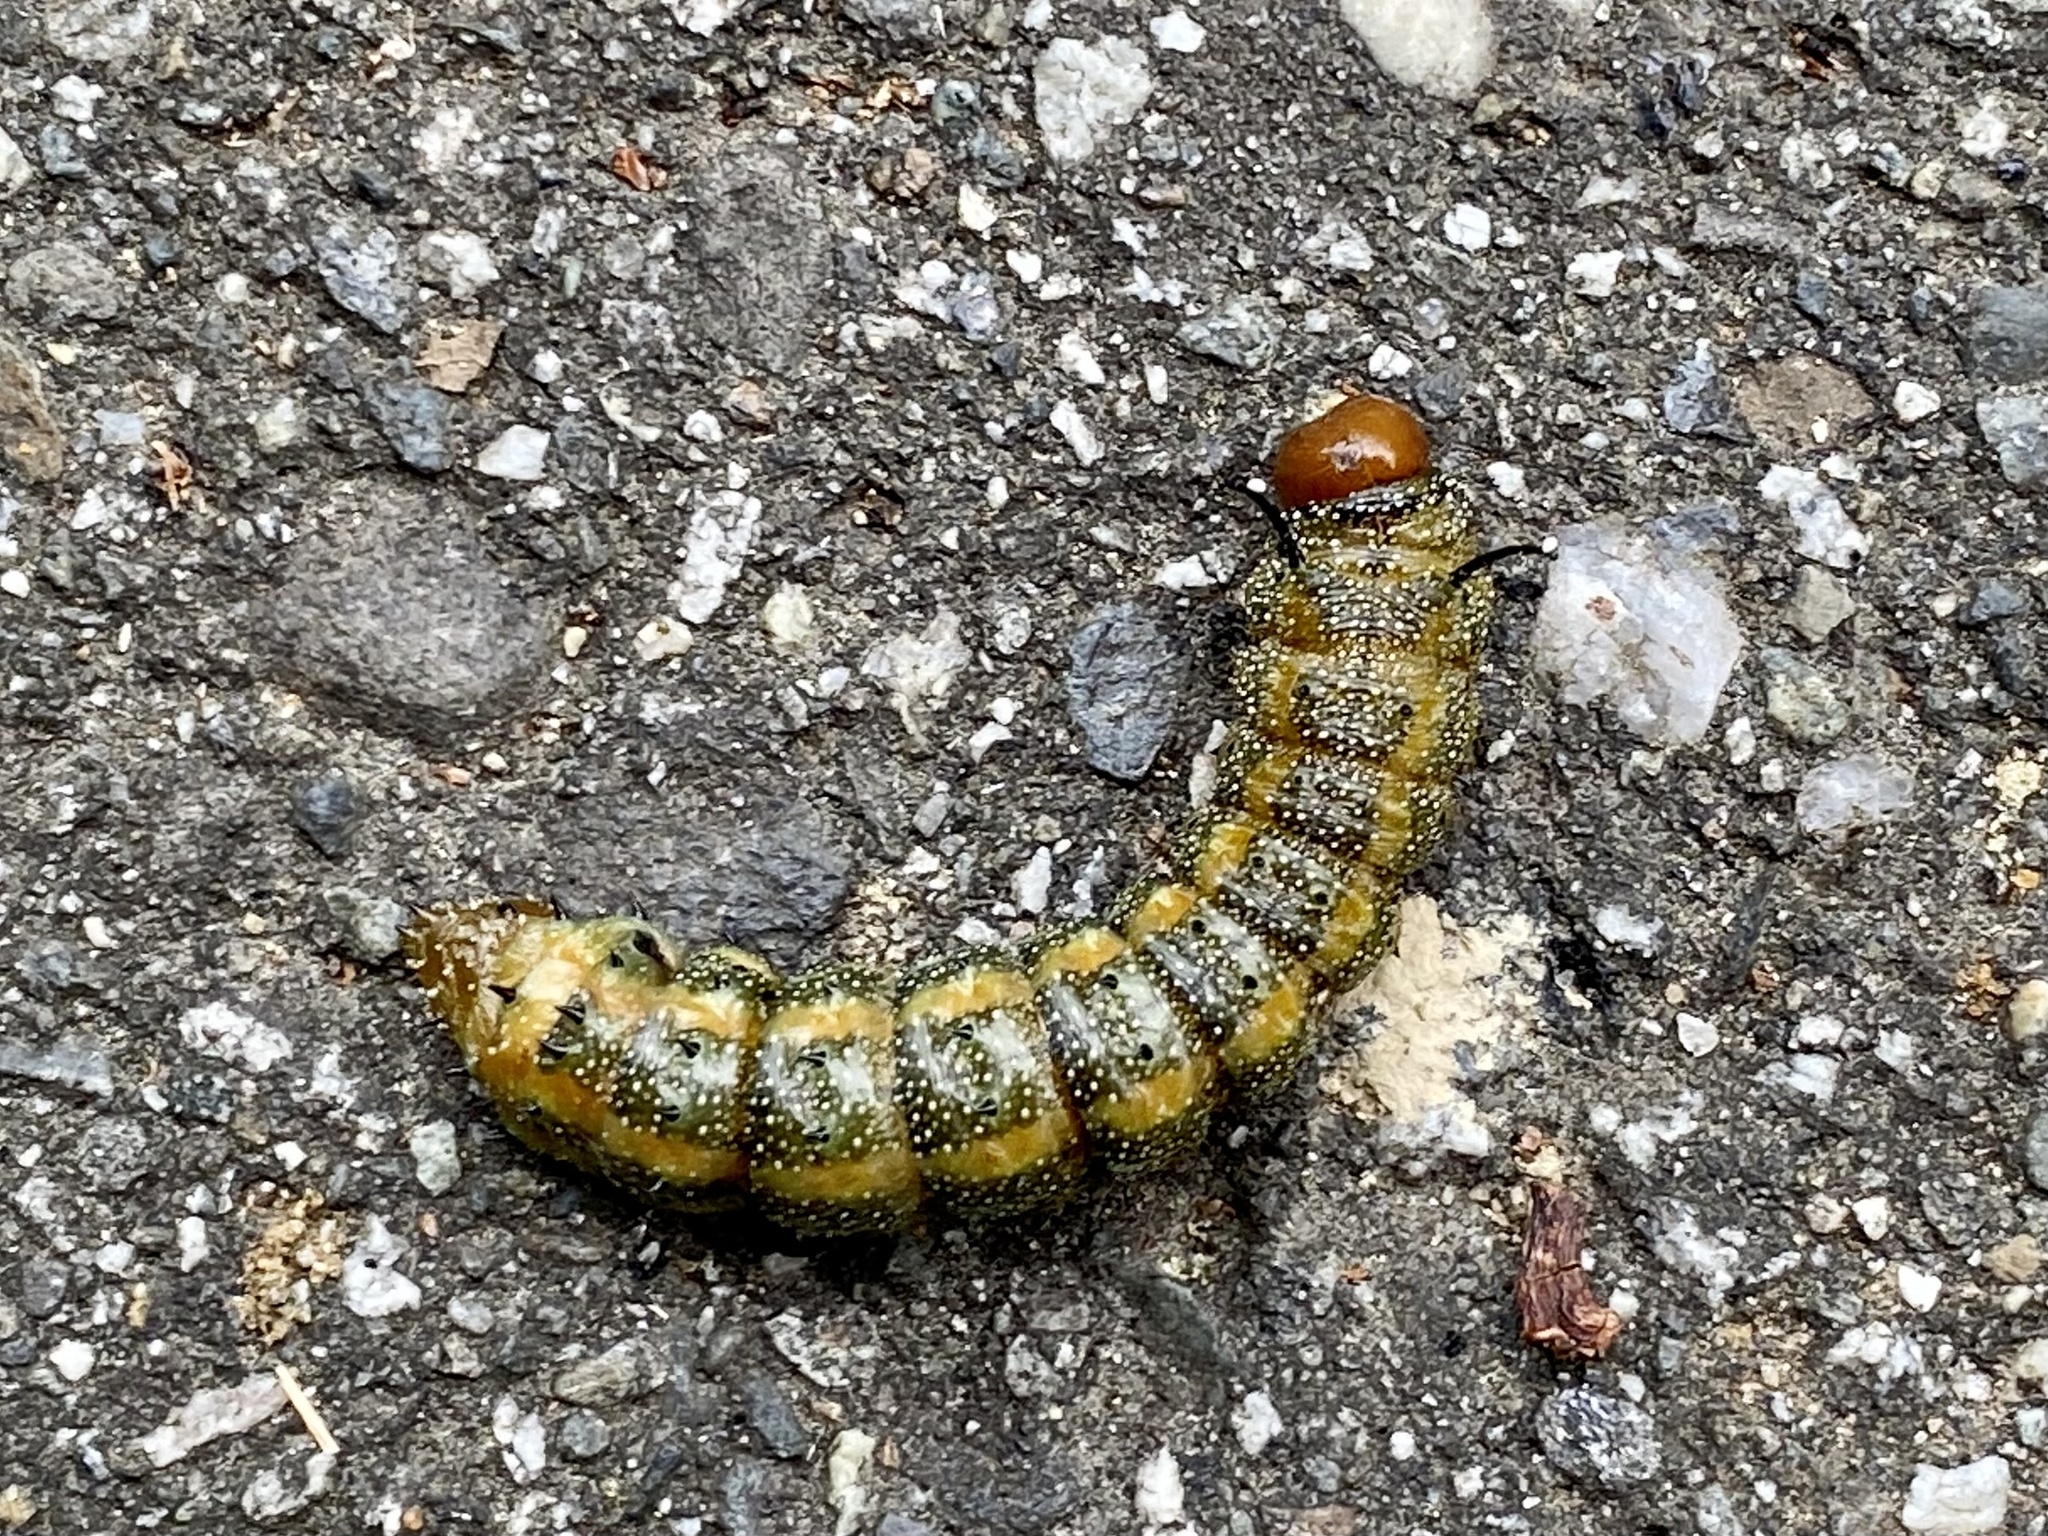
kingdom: Animalia
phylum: Arthropoda
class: Insecta
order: Lepidoptera
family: Saturniidae
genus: Anisota
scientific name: Anisota virginiensis
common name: Pink striped oakworm moth
